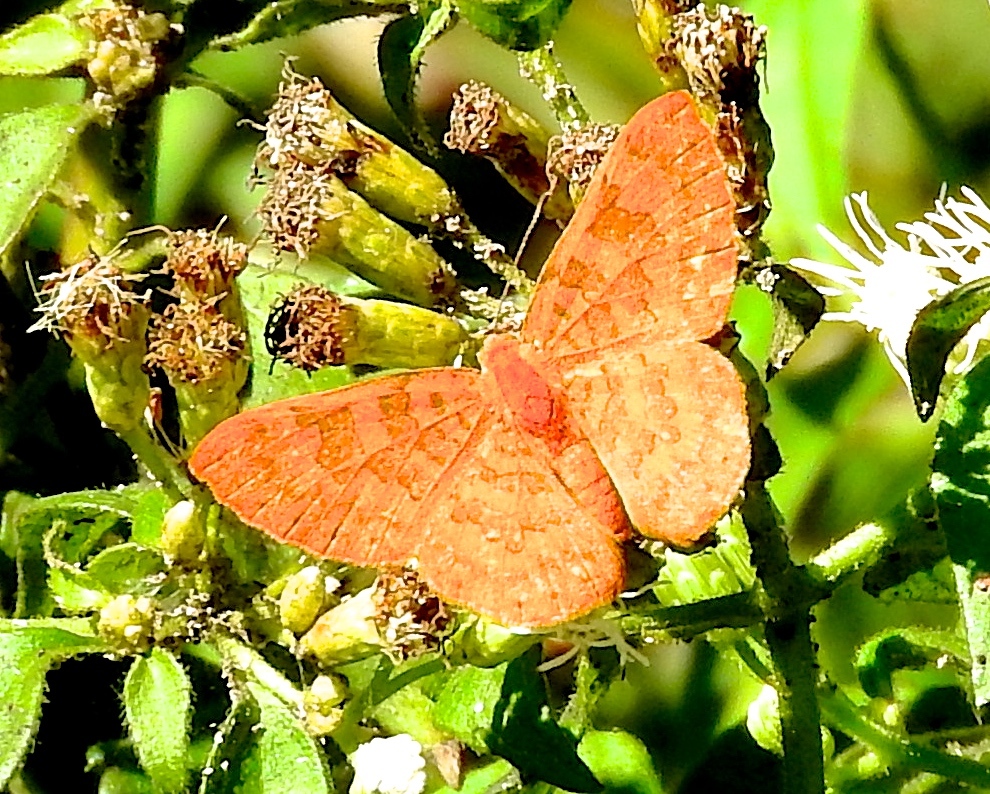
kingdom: Animalia
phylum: Arthropoda
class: Insecta
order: Lepidoptera
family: Lycaenidae
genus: Emesis
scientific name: Emesis mandana
